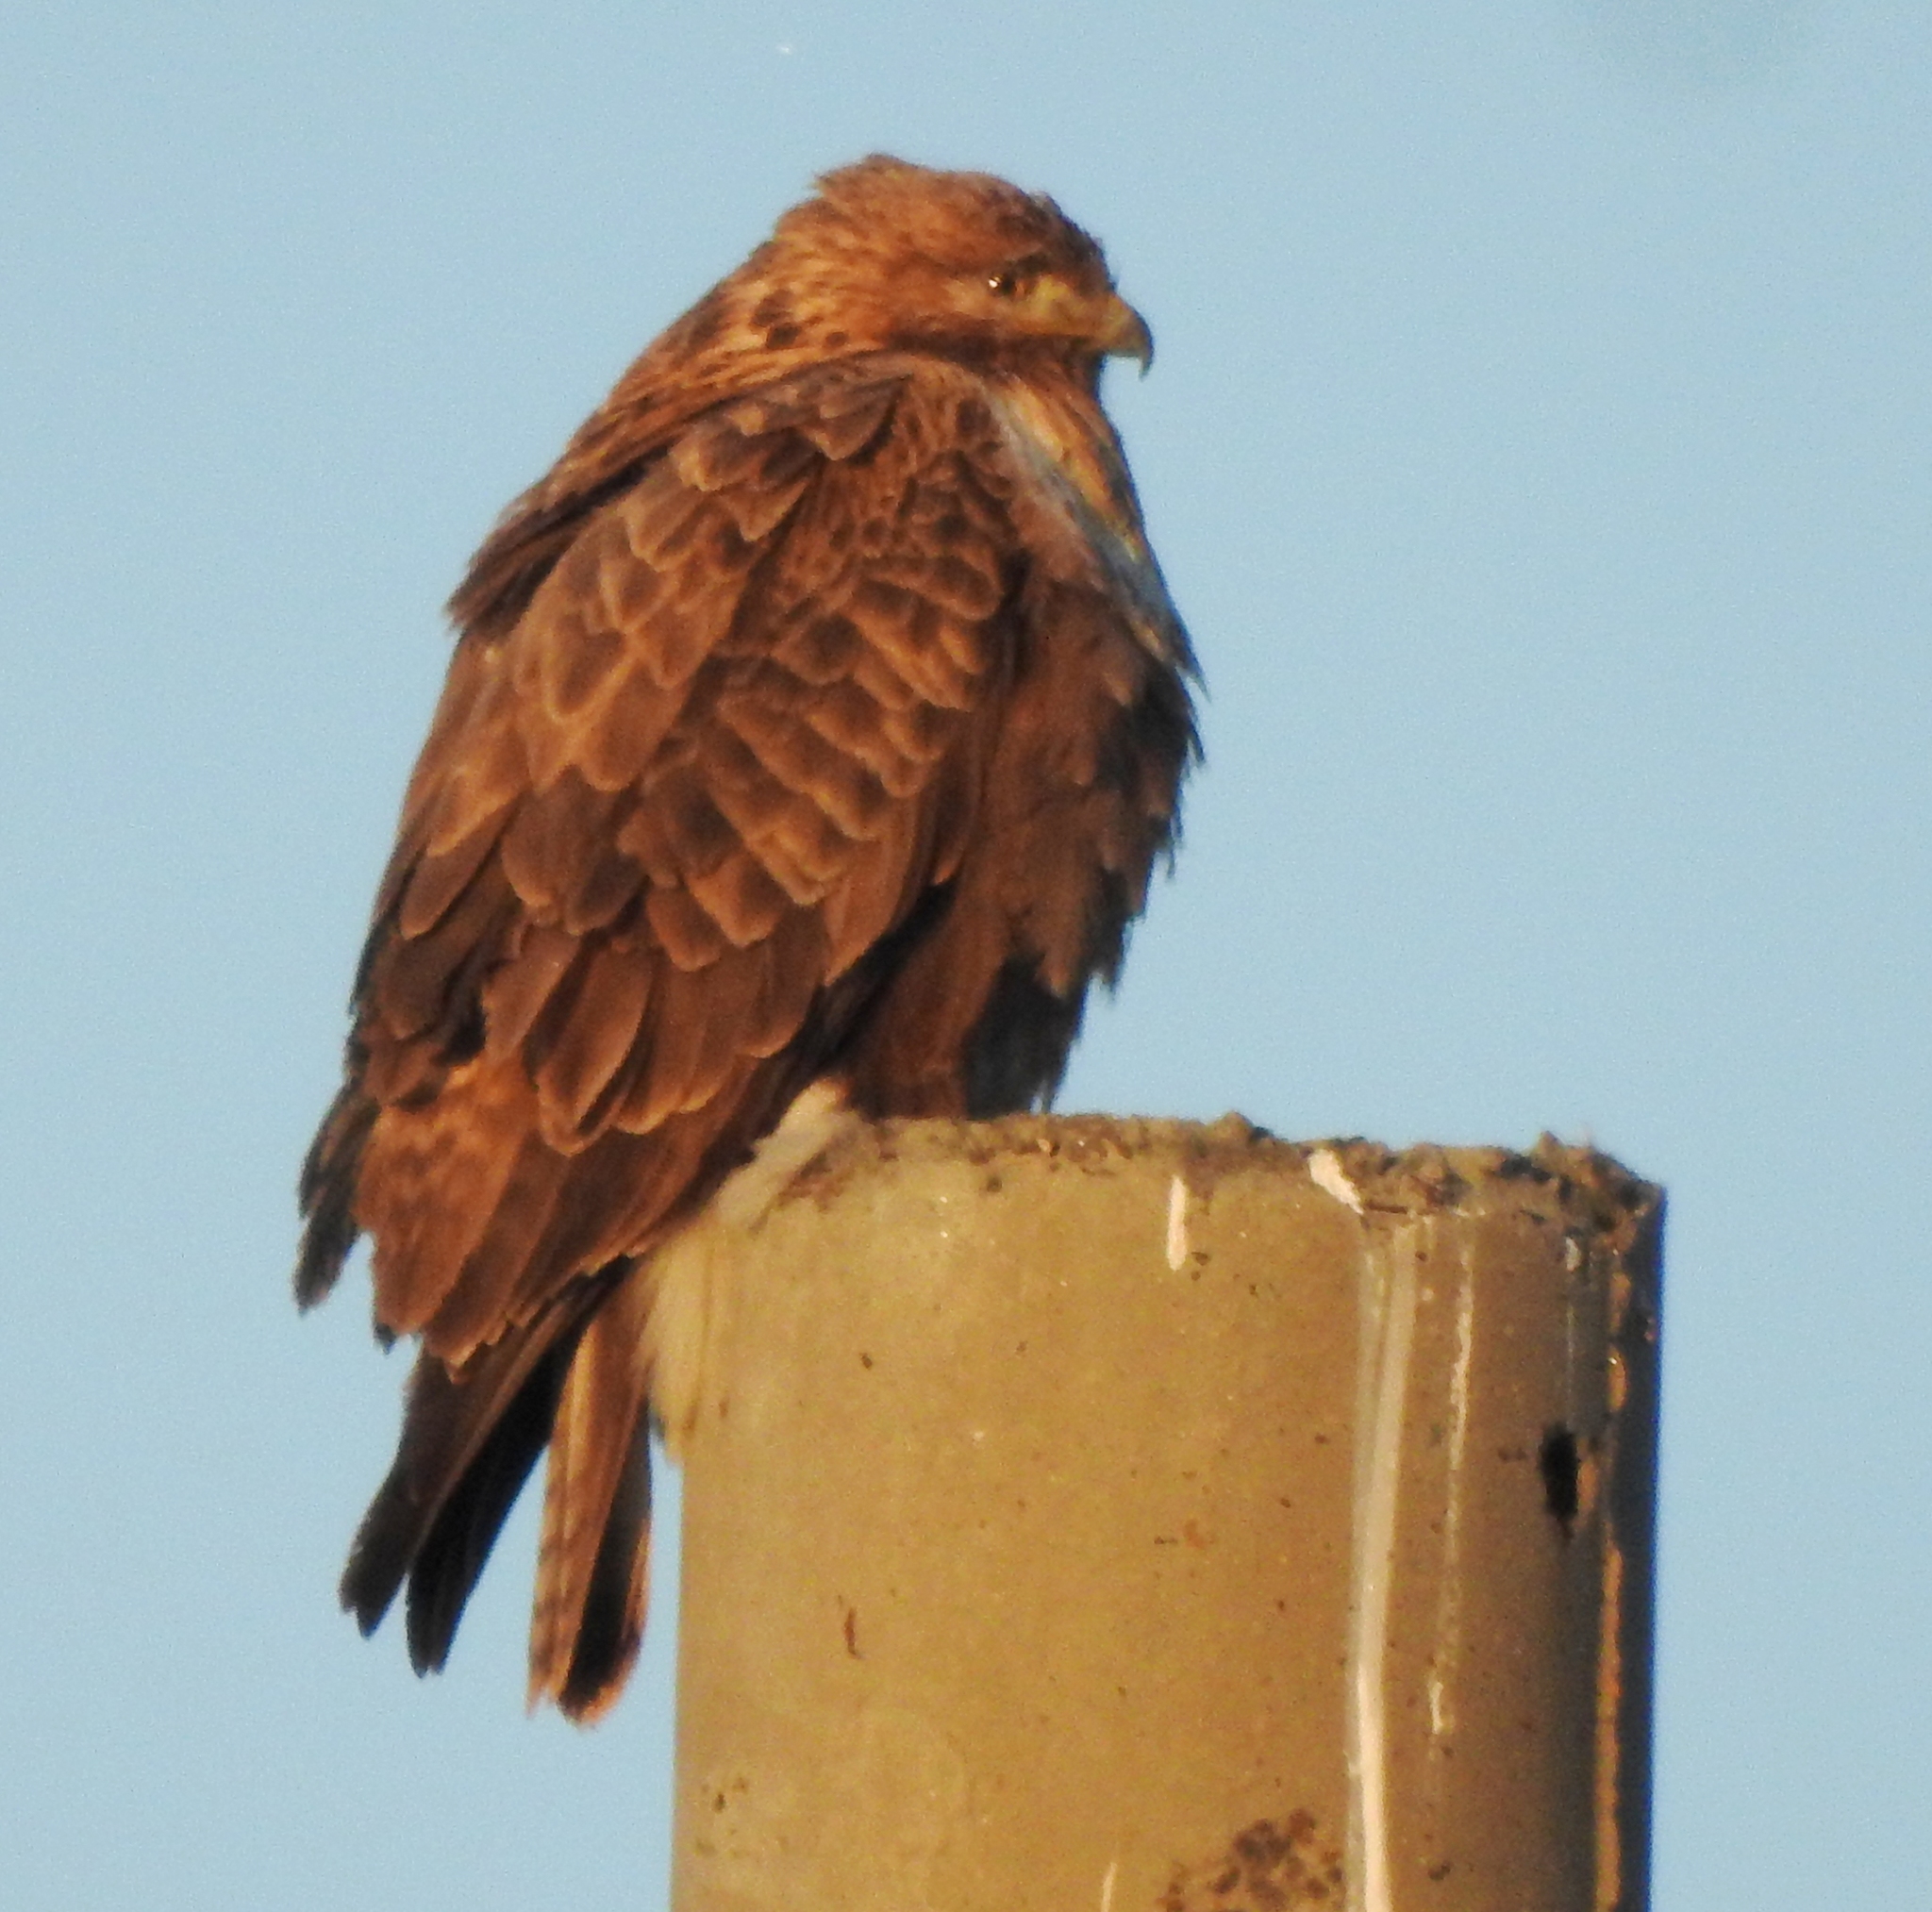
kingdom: Animalia
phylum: Chordata
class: Aves
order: Accipitriformes
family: Accipitridae
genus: Buteo
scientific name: Buteo hemilasius
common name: Upland buzzard
